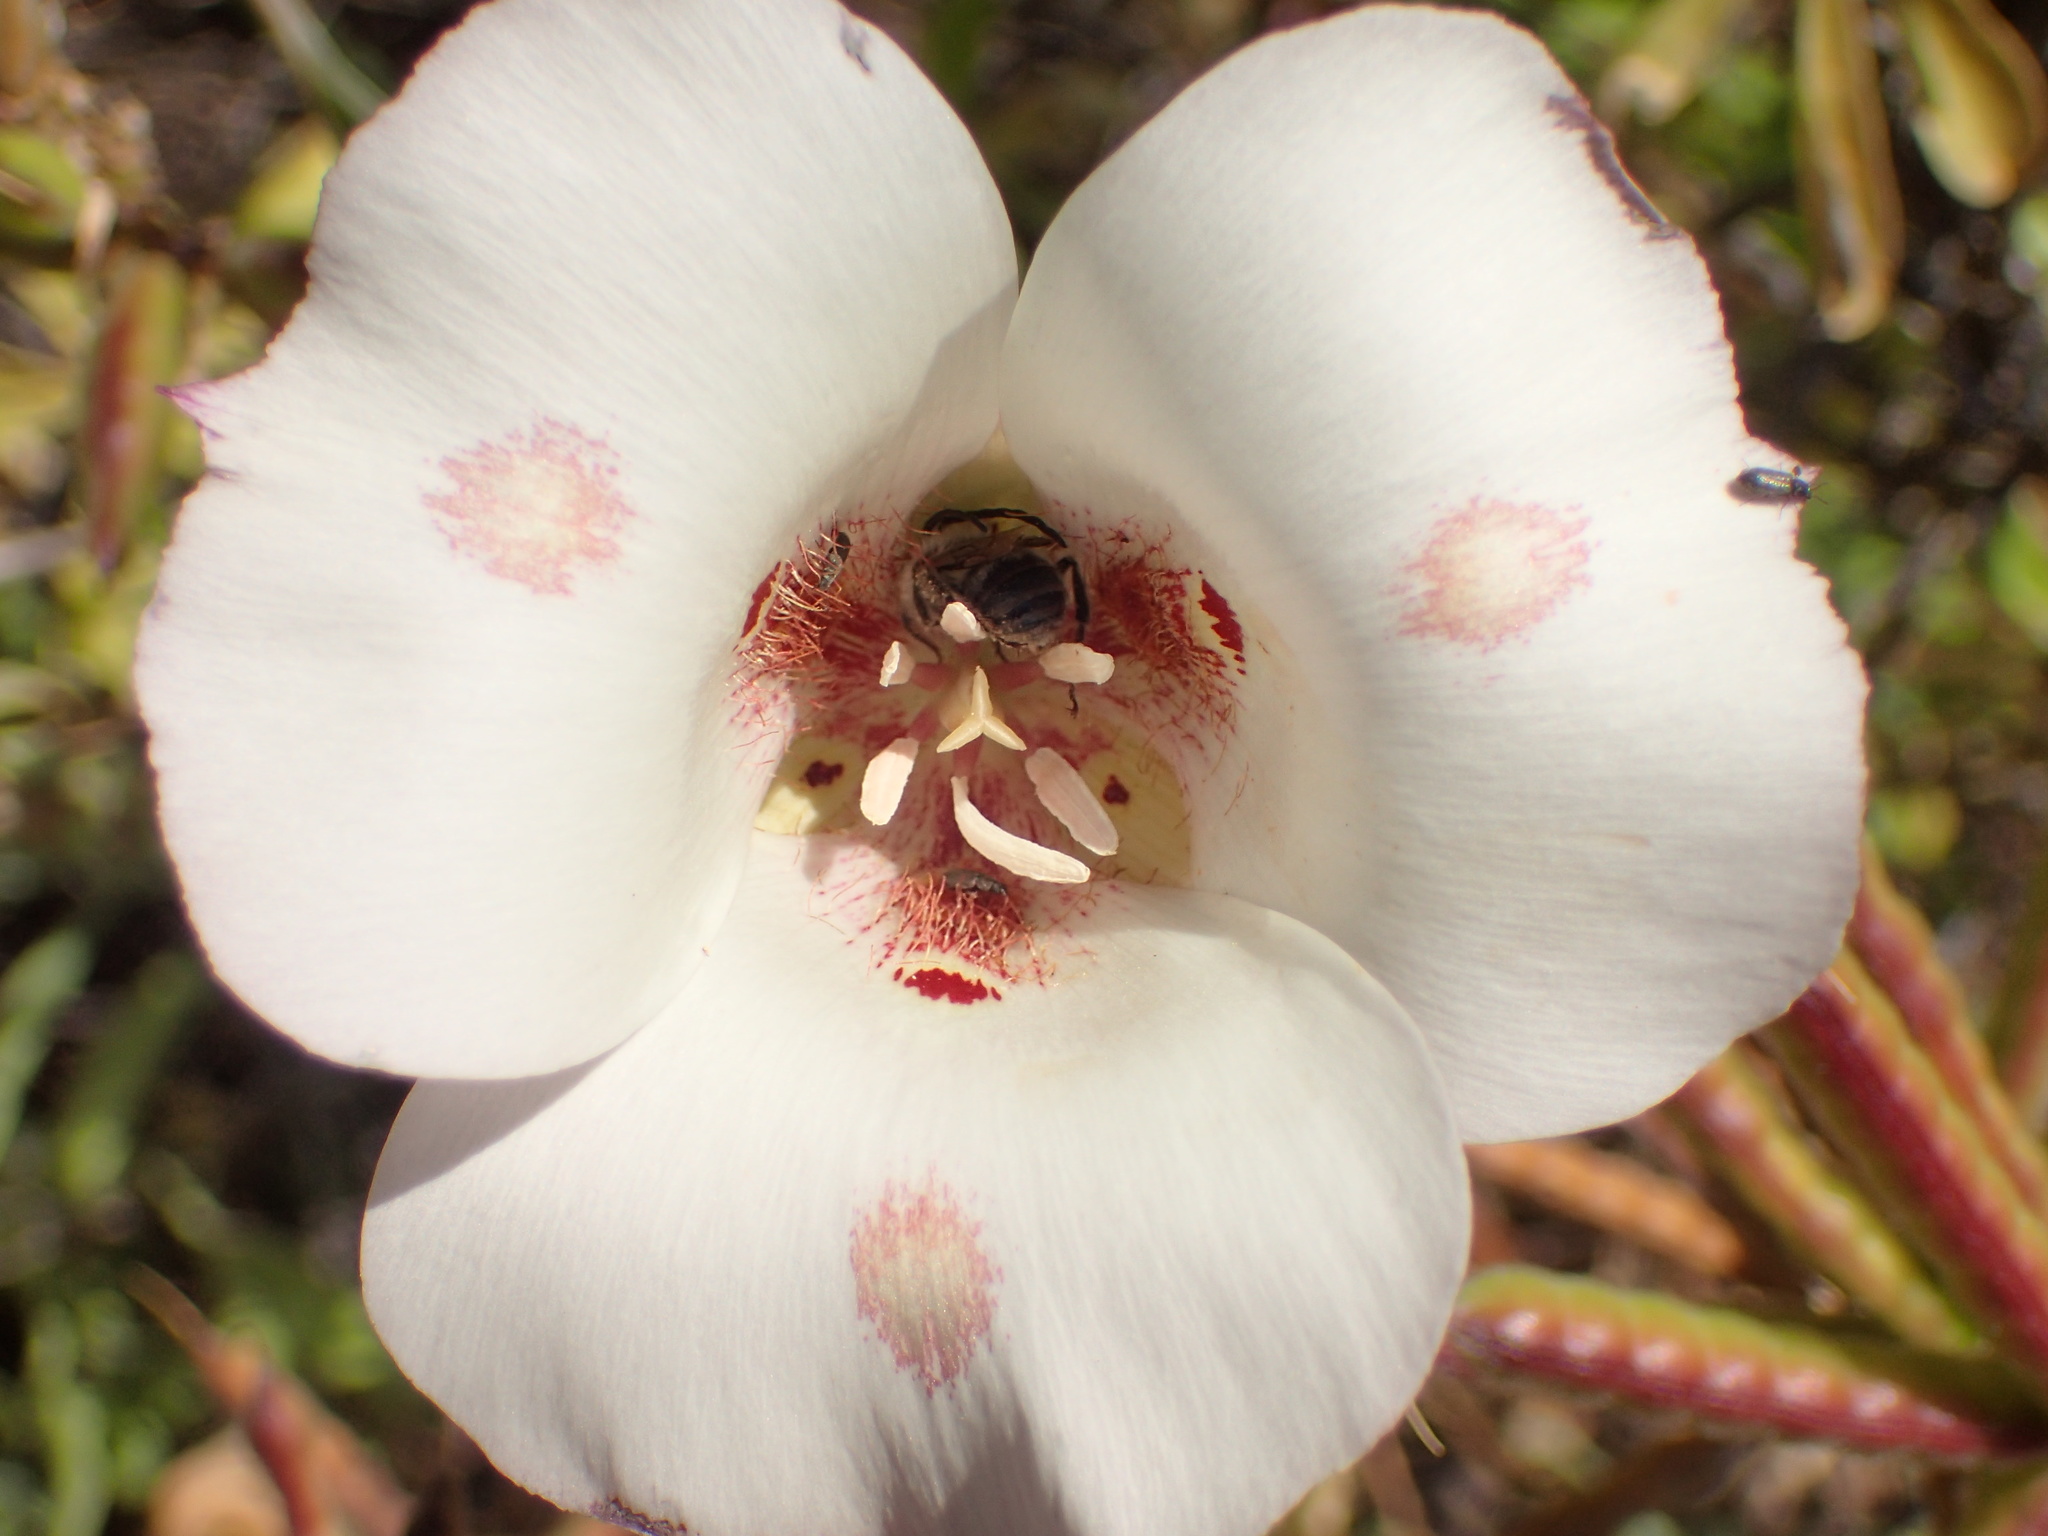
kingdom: Plantae
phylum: Tracheophyta
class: Liliopsida
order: Liliales
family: Liliaceae
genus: Calochortus
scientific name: Calochortus venustus
